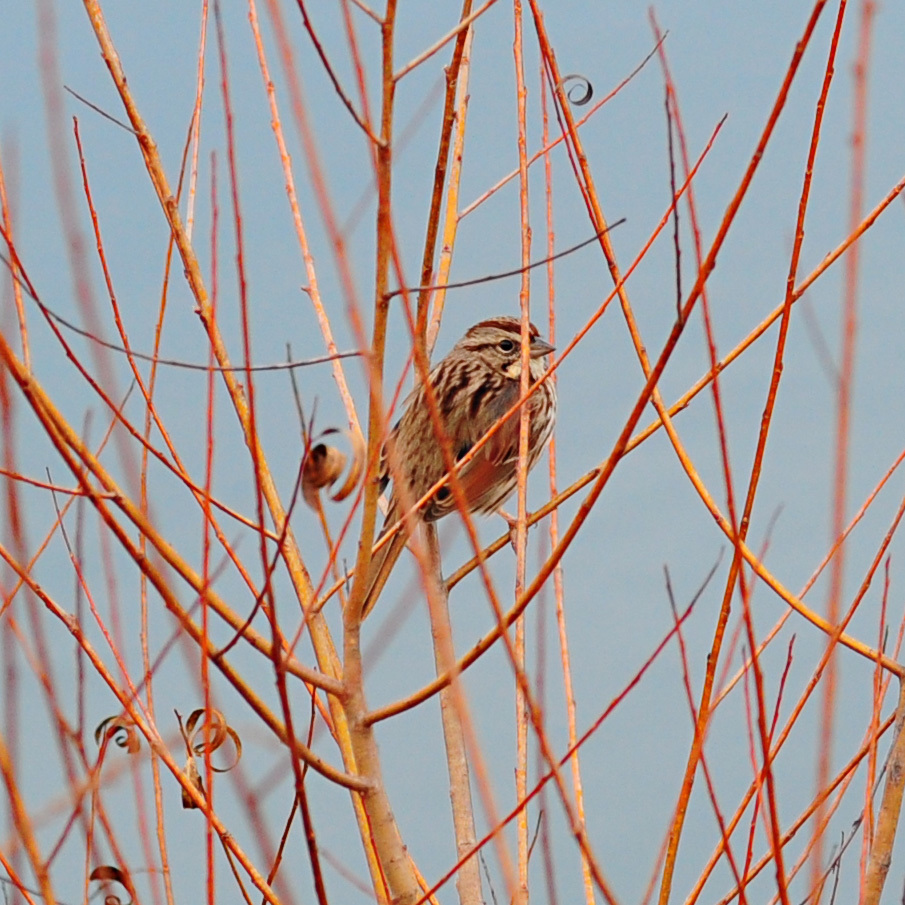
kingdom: Animalia
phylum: Chordata
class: Aves
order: Passeriformes
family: Passerellidae
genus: Melospiza
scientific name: Melospiza melodia
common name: Song sparrow
